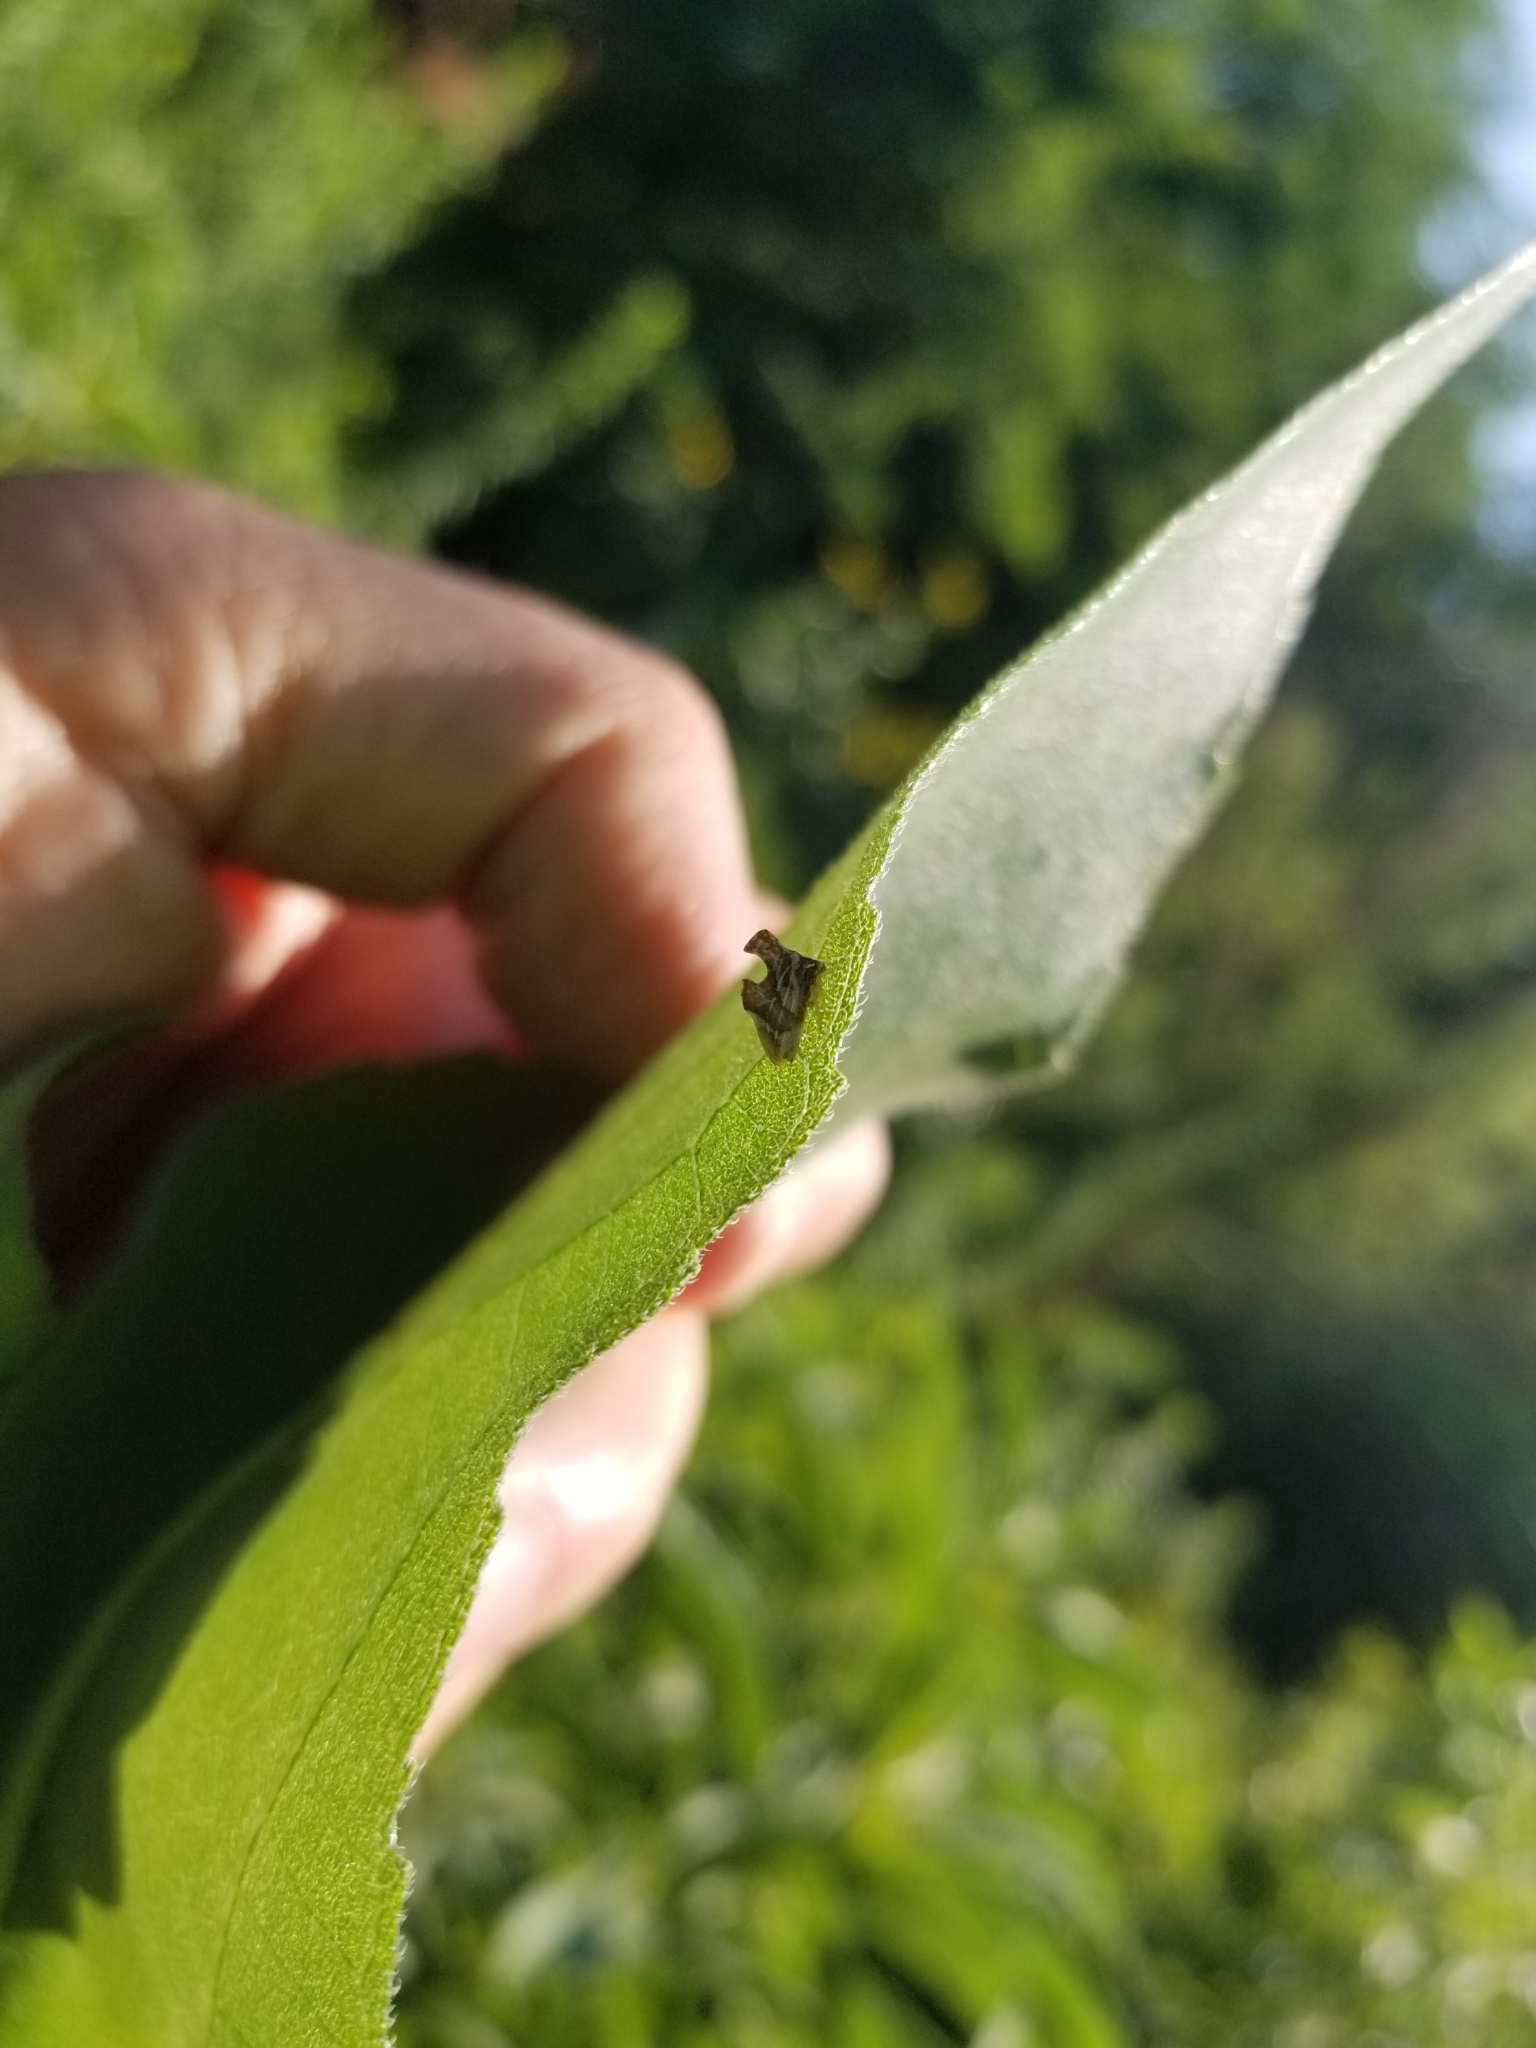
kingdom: Animalia
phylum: Arthropoda
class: Insecta
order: Hemiptera
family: Membracidae
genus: Entylia
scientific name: Entylia carinata
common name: Keeled treehopper
